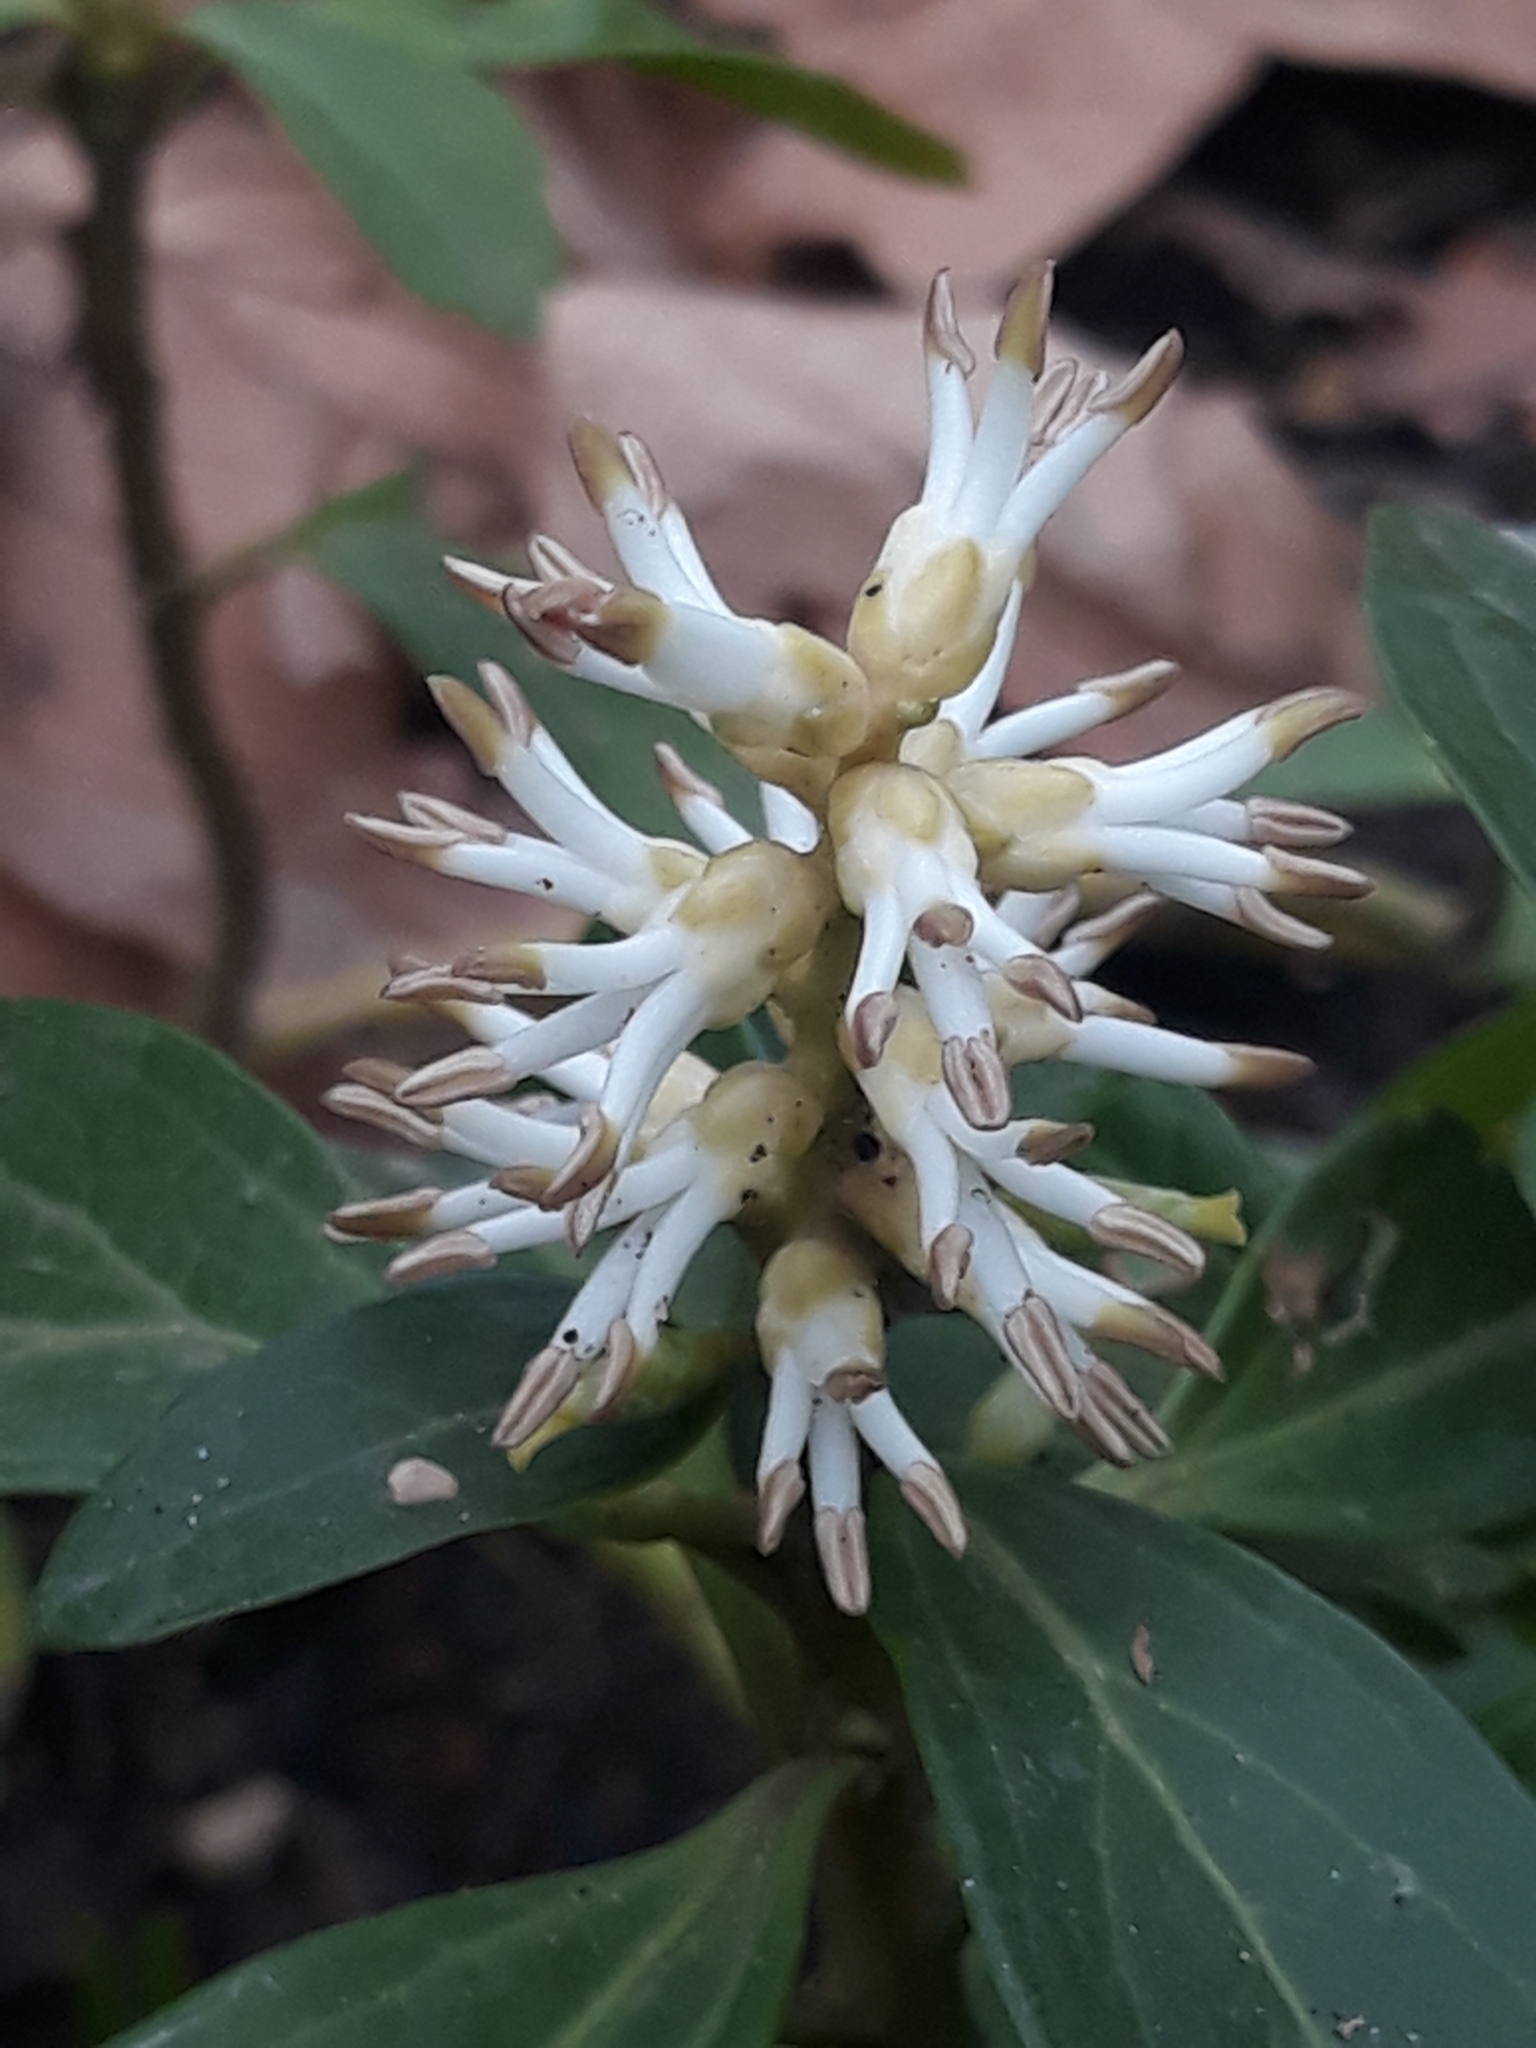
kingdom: Plantae
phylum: Tracheophyta
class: Magnoliopsida
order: Buxales
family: Buxaceae
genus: Pachysandra
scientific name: Pachysandra terminalis
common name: Japanese pachysandra
